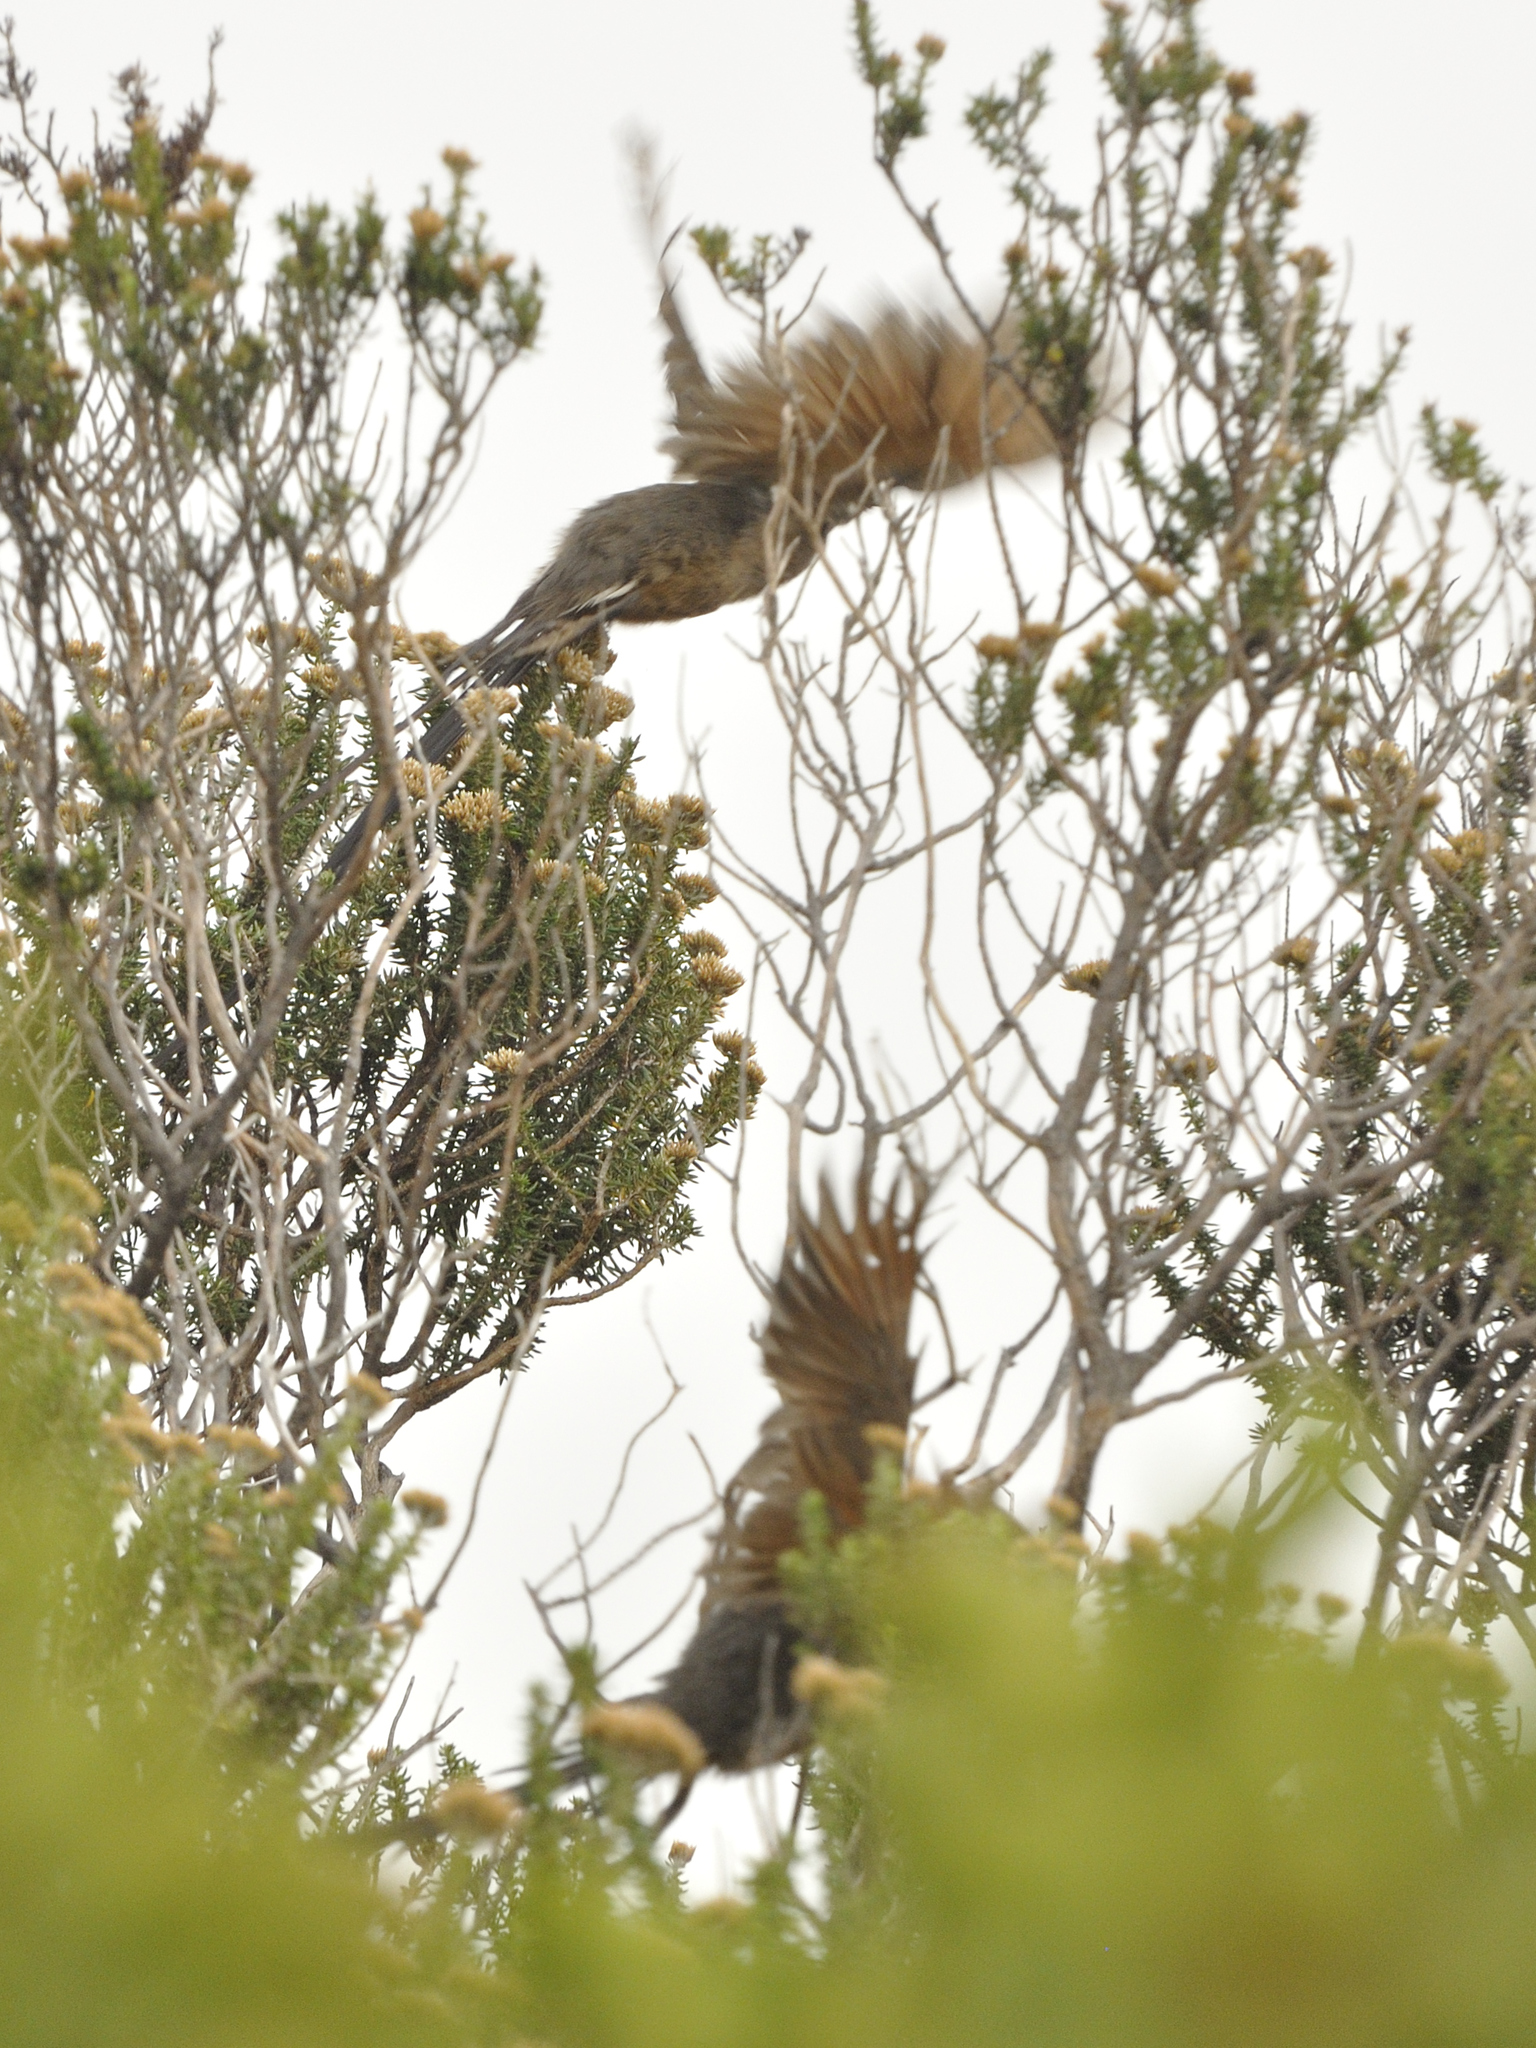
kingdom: Animalia
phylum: Chordata
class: Aves
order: Coliiformes
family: Coliidae
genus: Colius
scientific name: Colius striatus
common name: Speckled mousebird
